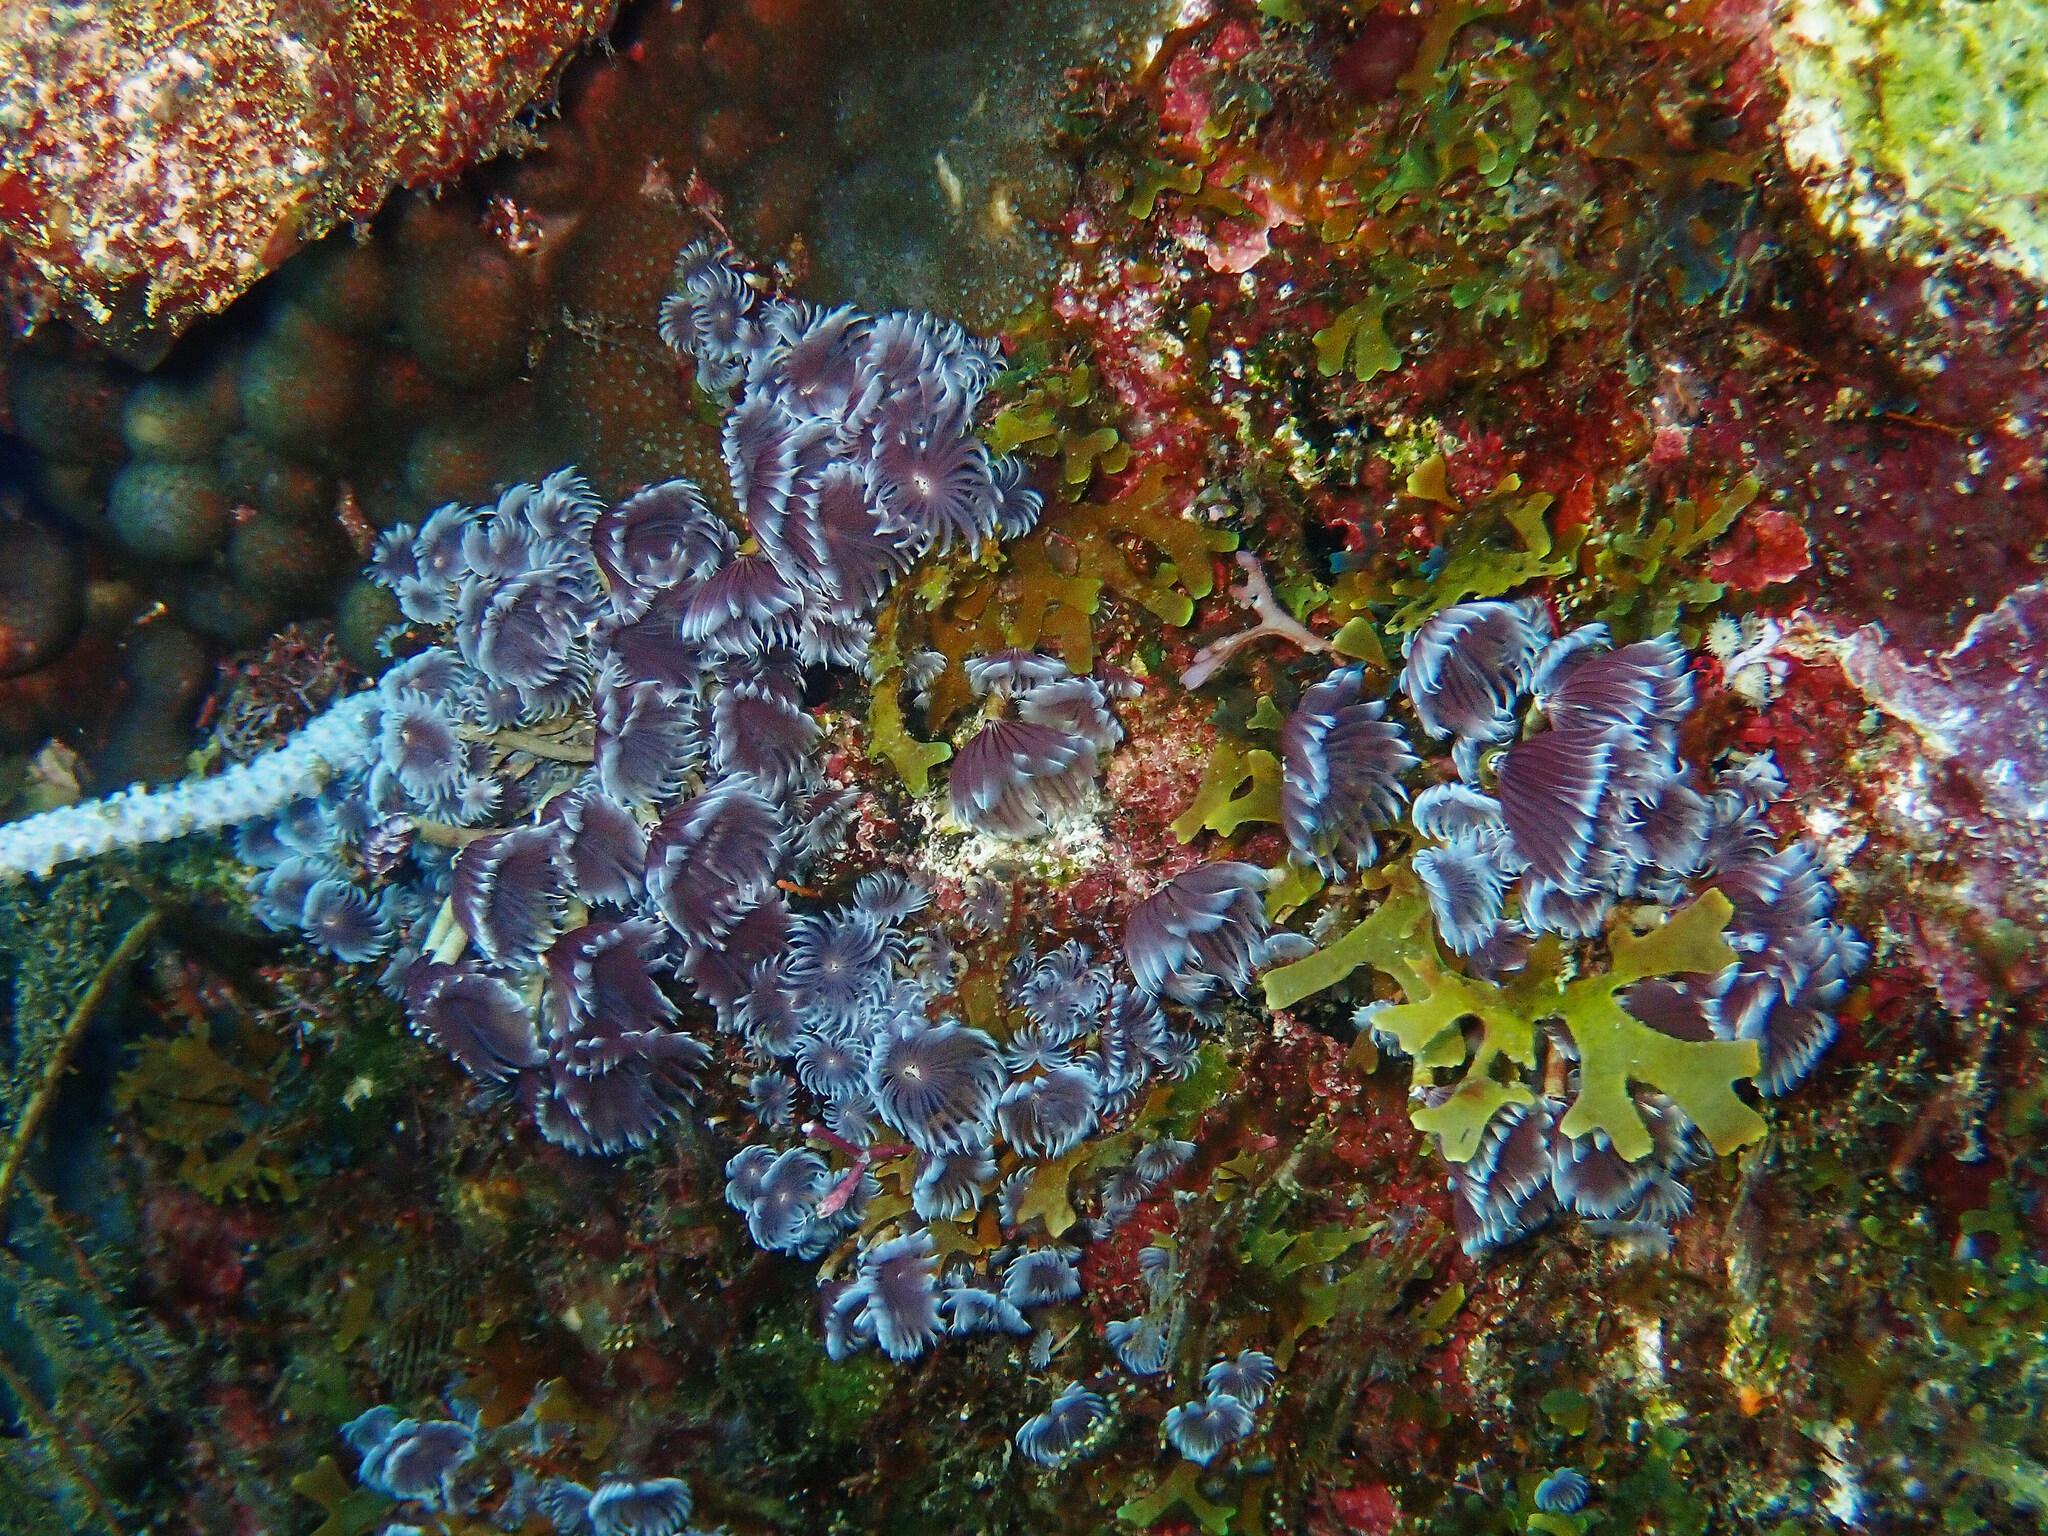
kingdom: Animalia
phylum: Annelida
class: Polychaeta
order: Sabellida
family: Sabellidae
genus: Bispira
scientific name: Bispira brunnea
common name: Social feather duster
